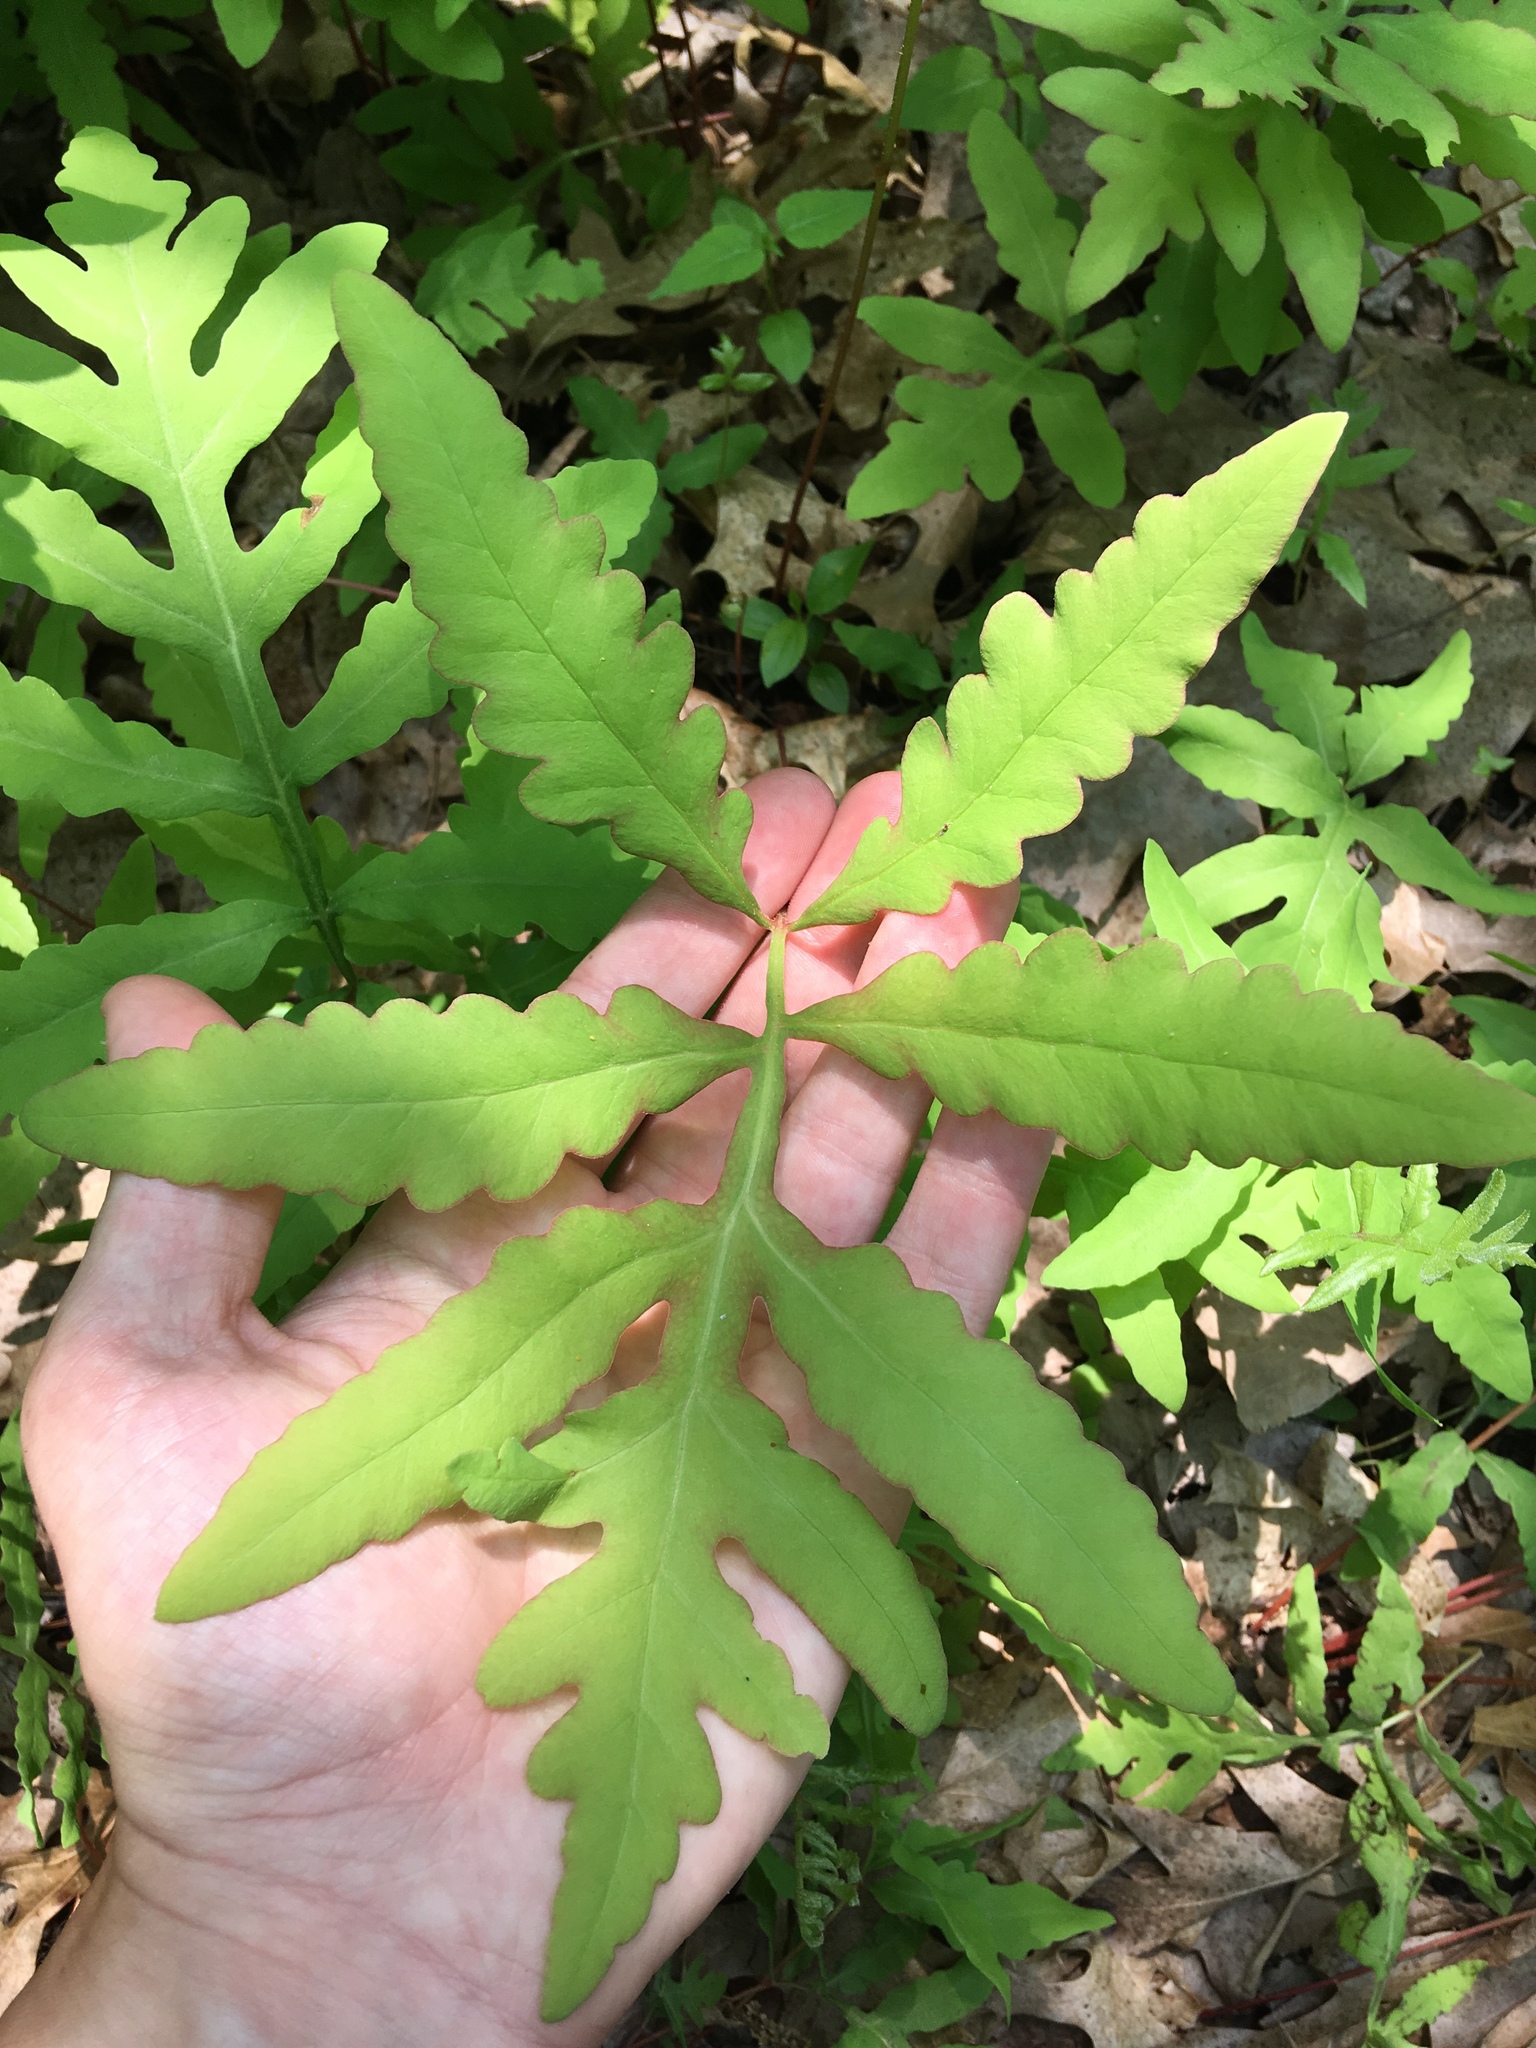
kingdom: Plantae
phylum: Tracheophyta
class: Polypodiopsida
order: Polypodiales
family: Onocleaceae
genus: Onoclea
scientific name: Onoclea sensibilis
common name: Sensitive fern
